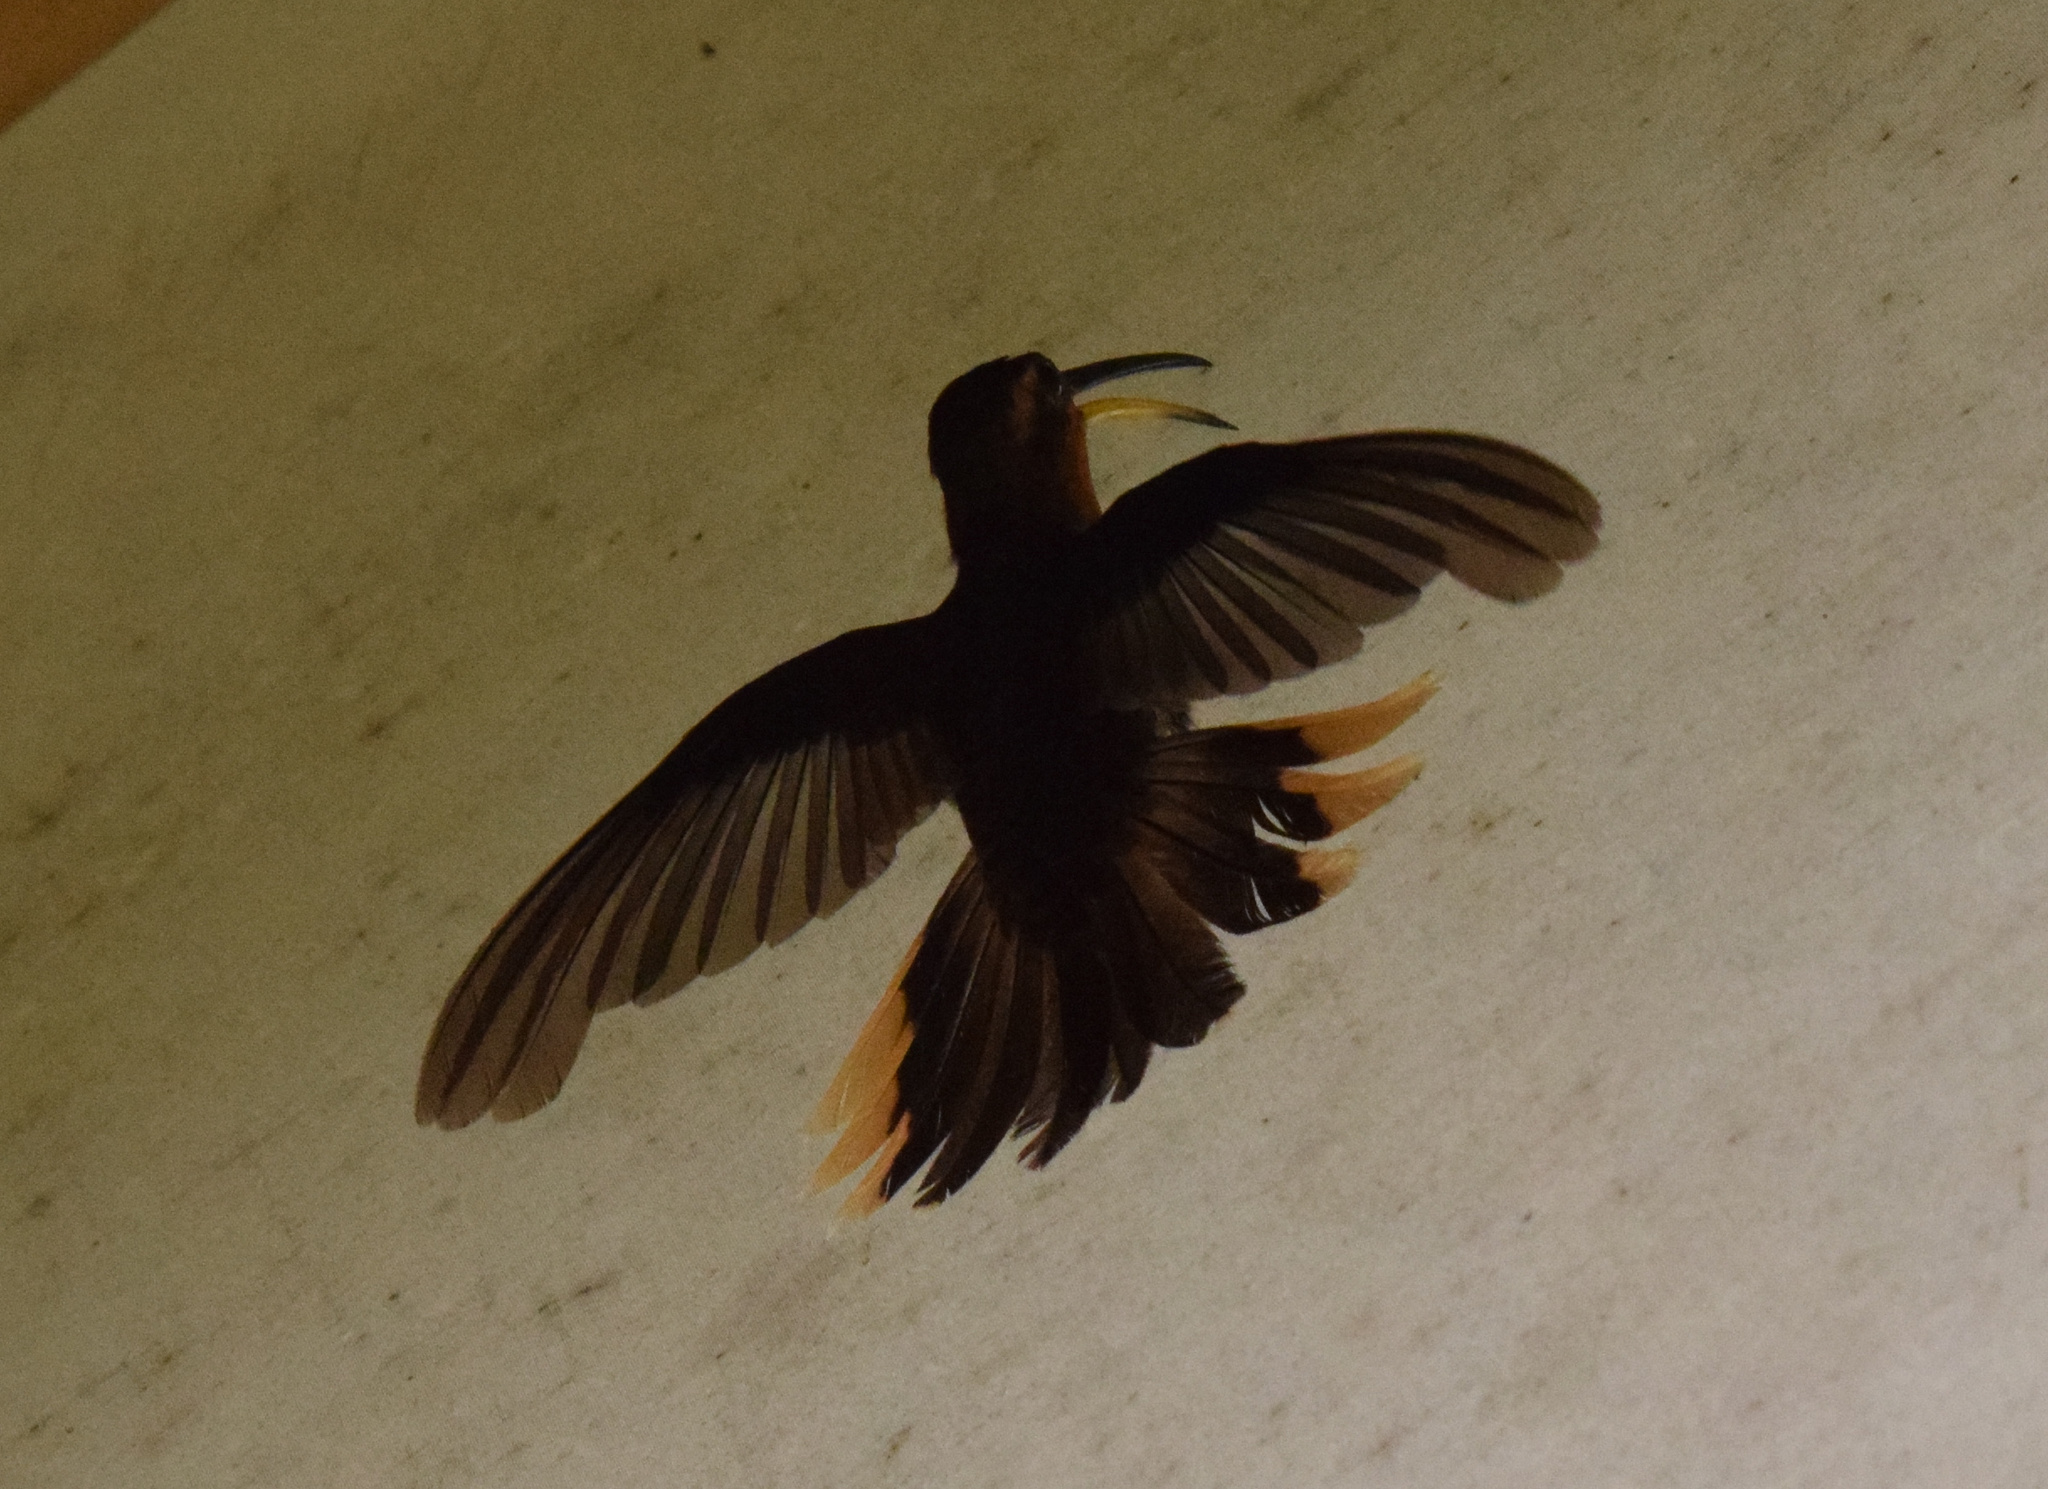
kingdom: Animalia
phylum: Chordata
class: Aves
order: Apodiformes
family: Trochilidae
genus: Phaethornis
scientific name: Phaethornis eurynome
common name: Scale-throated hermit
